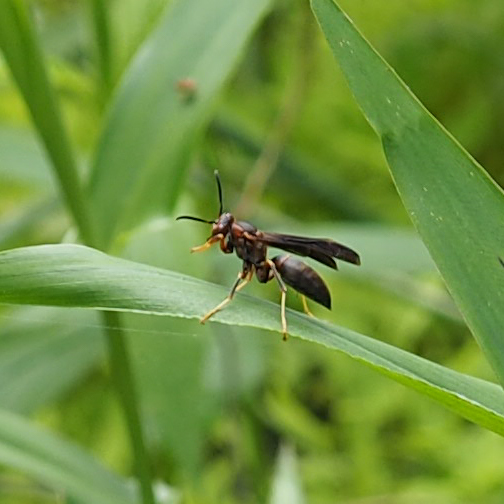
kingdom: Animalia
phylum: Arthropoda
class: Insecta
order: Hymenoptera
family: Eumenidae
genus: Polistes
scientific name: Polistes metricus
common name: Metric paper wasp
